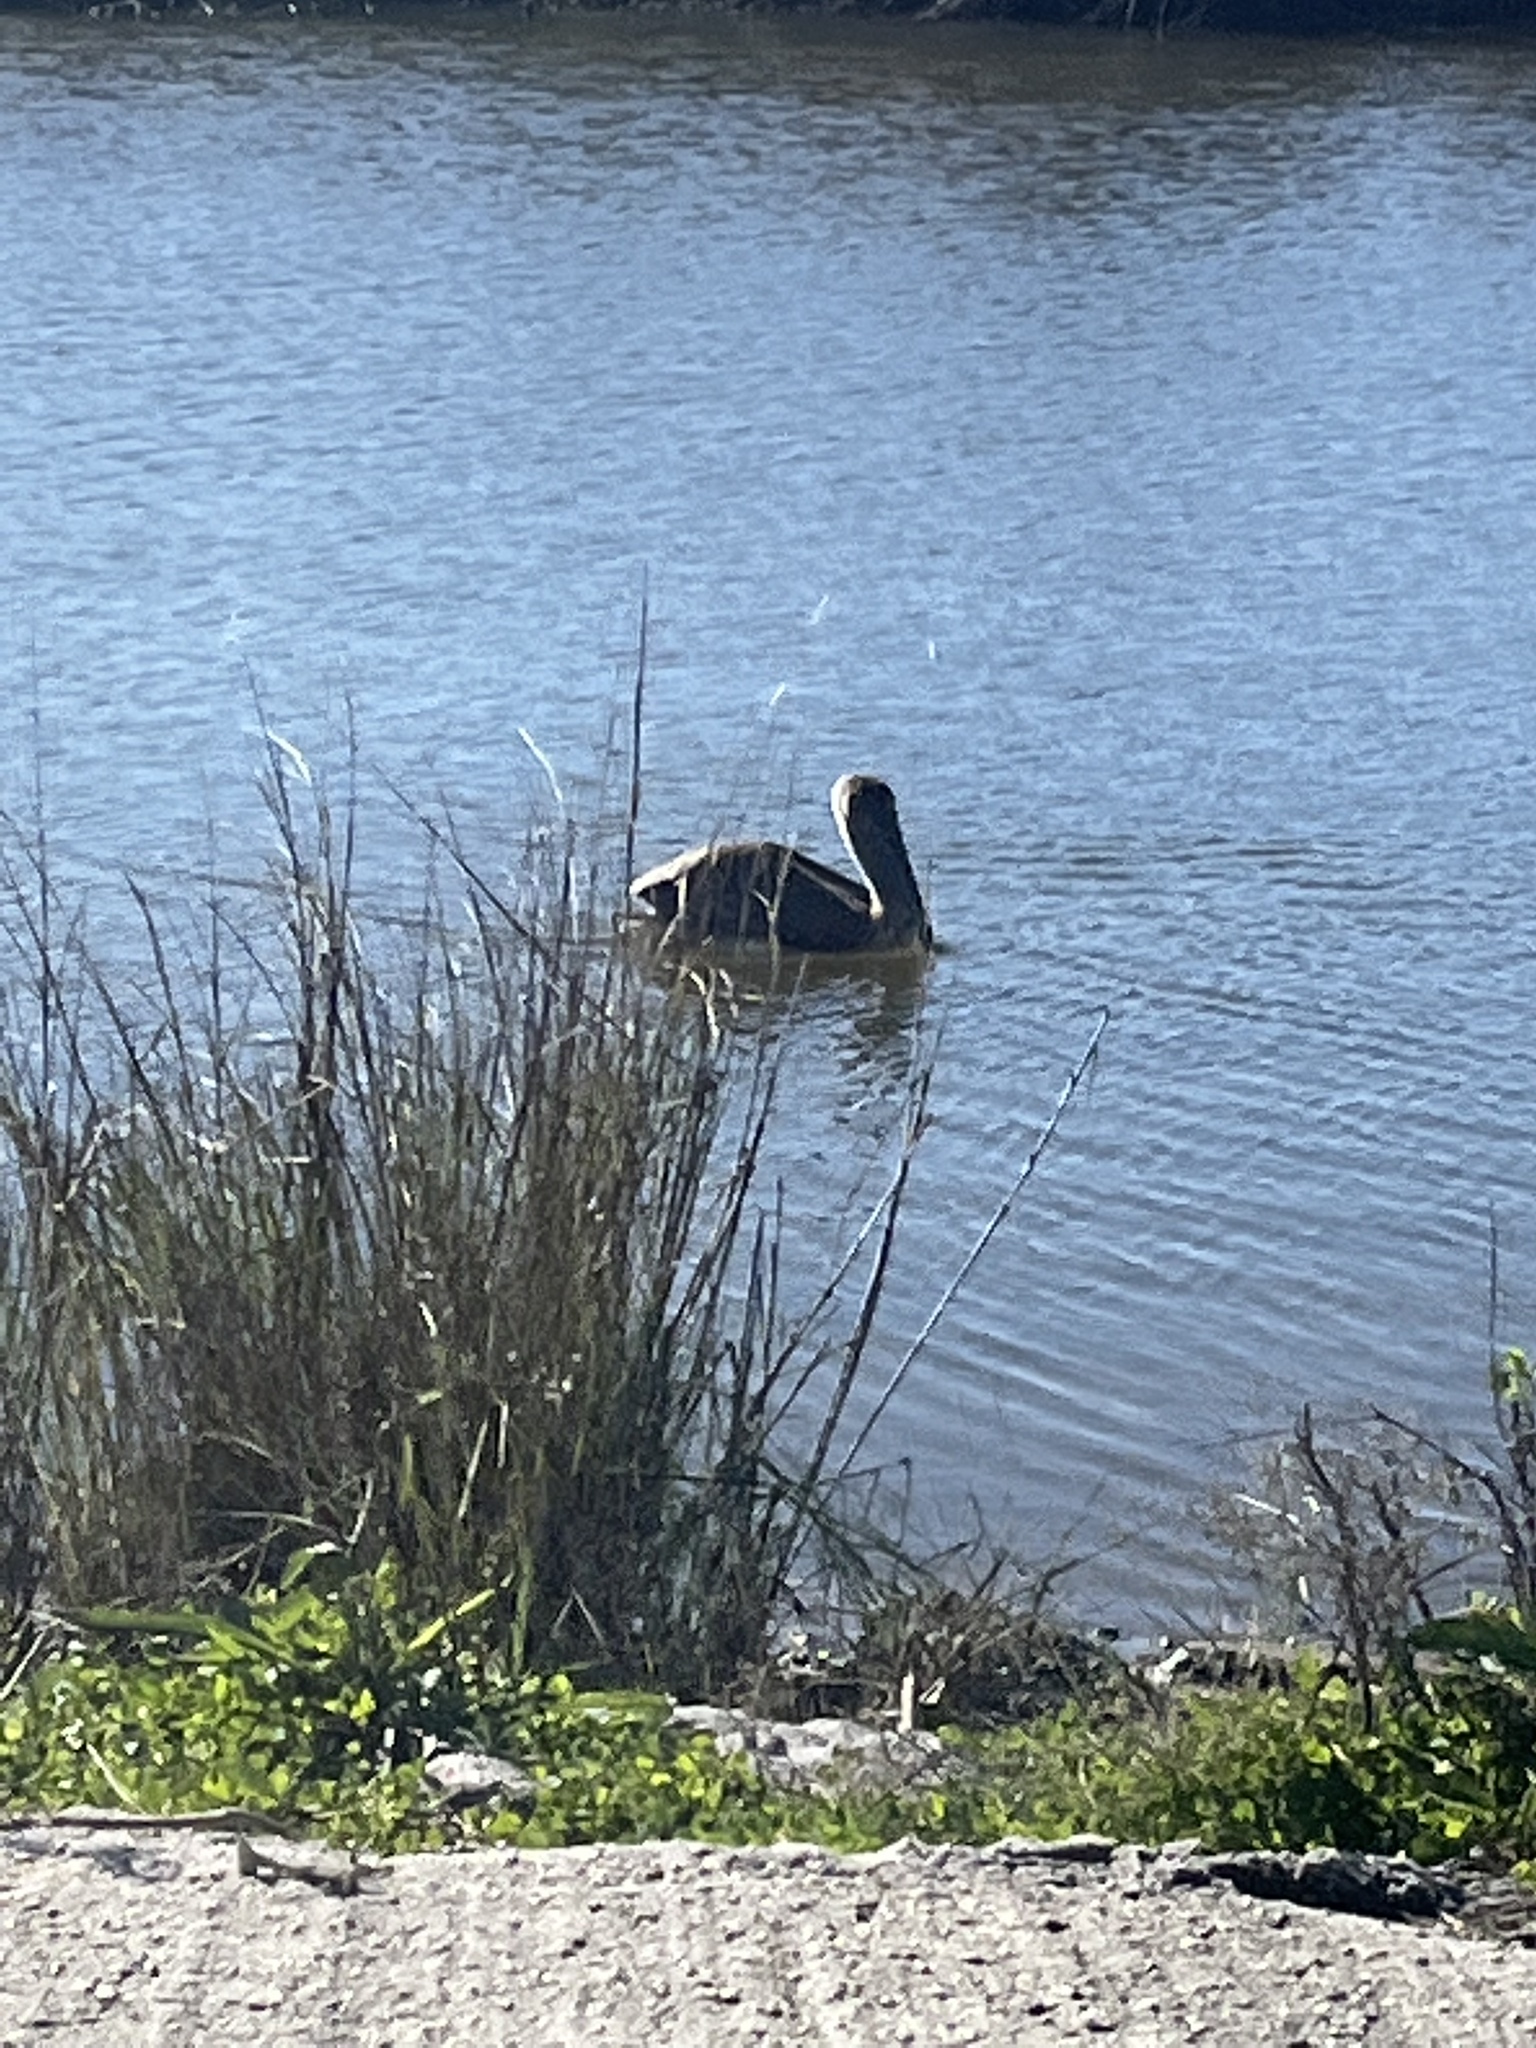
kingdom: Animalia
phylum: Chordata
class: Aves
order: Pelecaniformes
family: Pelecanidae
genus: Pelecanus
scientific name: Pelecanus occidentalis
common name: Brown pelican
